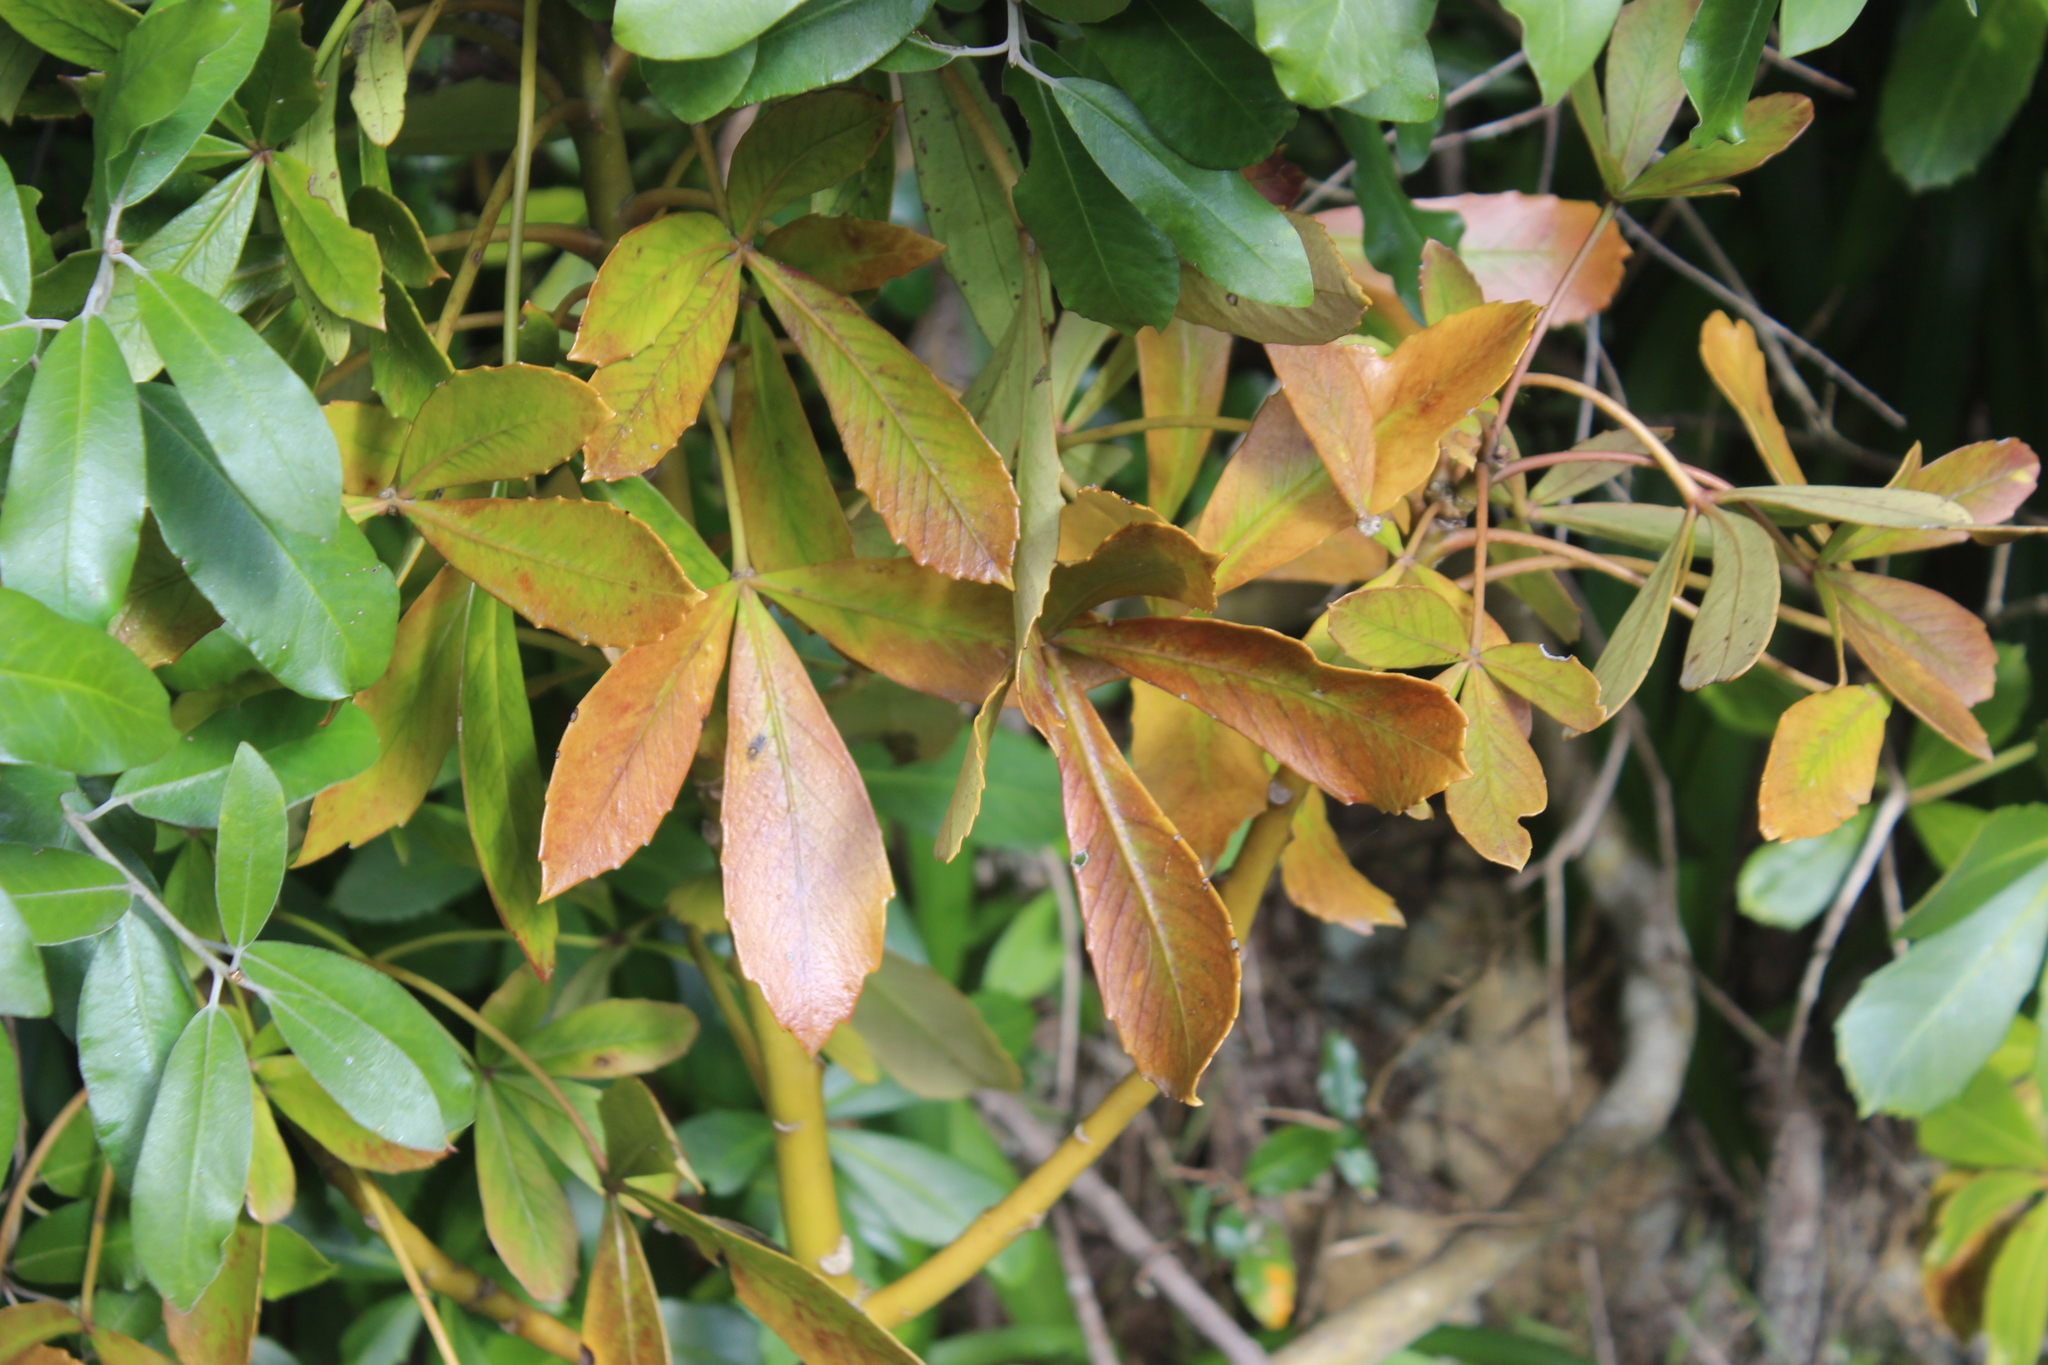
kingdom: Plantae
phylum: Tracheophyta
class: Magnoliopsida
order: Apiales
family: Araliaceae
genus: Pseudopanax
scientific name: Pseudopanax lessonii
